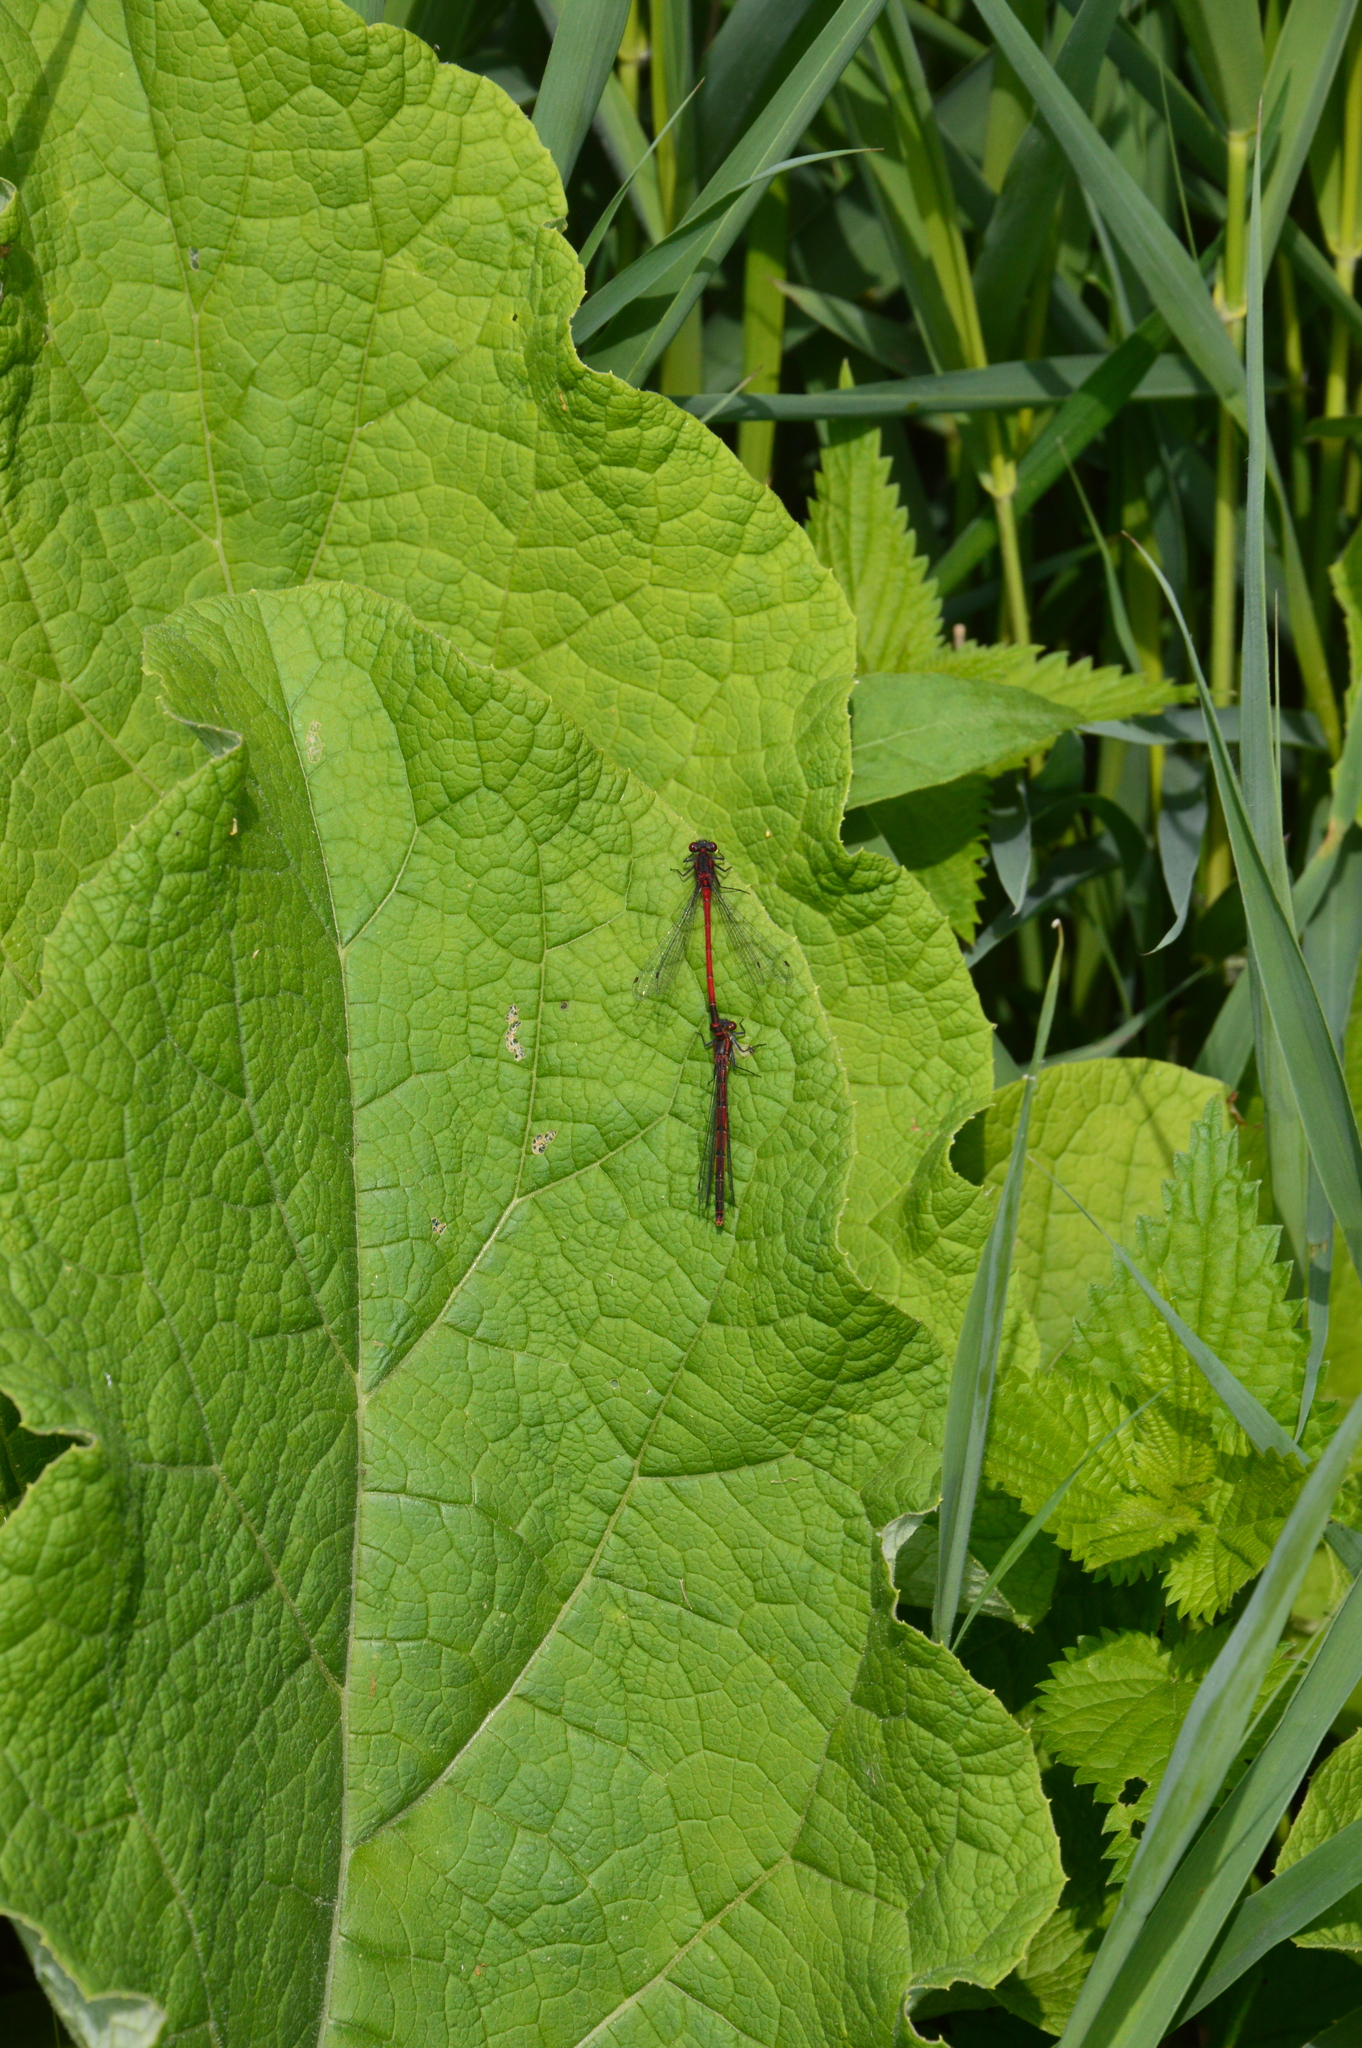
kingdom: Animalia
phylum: Arthropoda
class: Insecta
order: Odonata
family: Coenagrionidae
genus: Pyrrhosoma
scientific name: Pyrrhosoma nymphula
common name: Large red damsel
